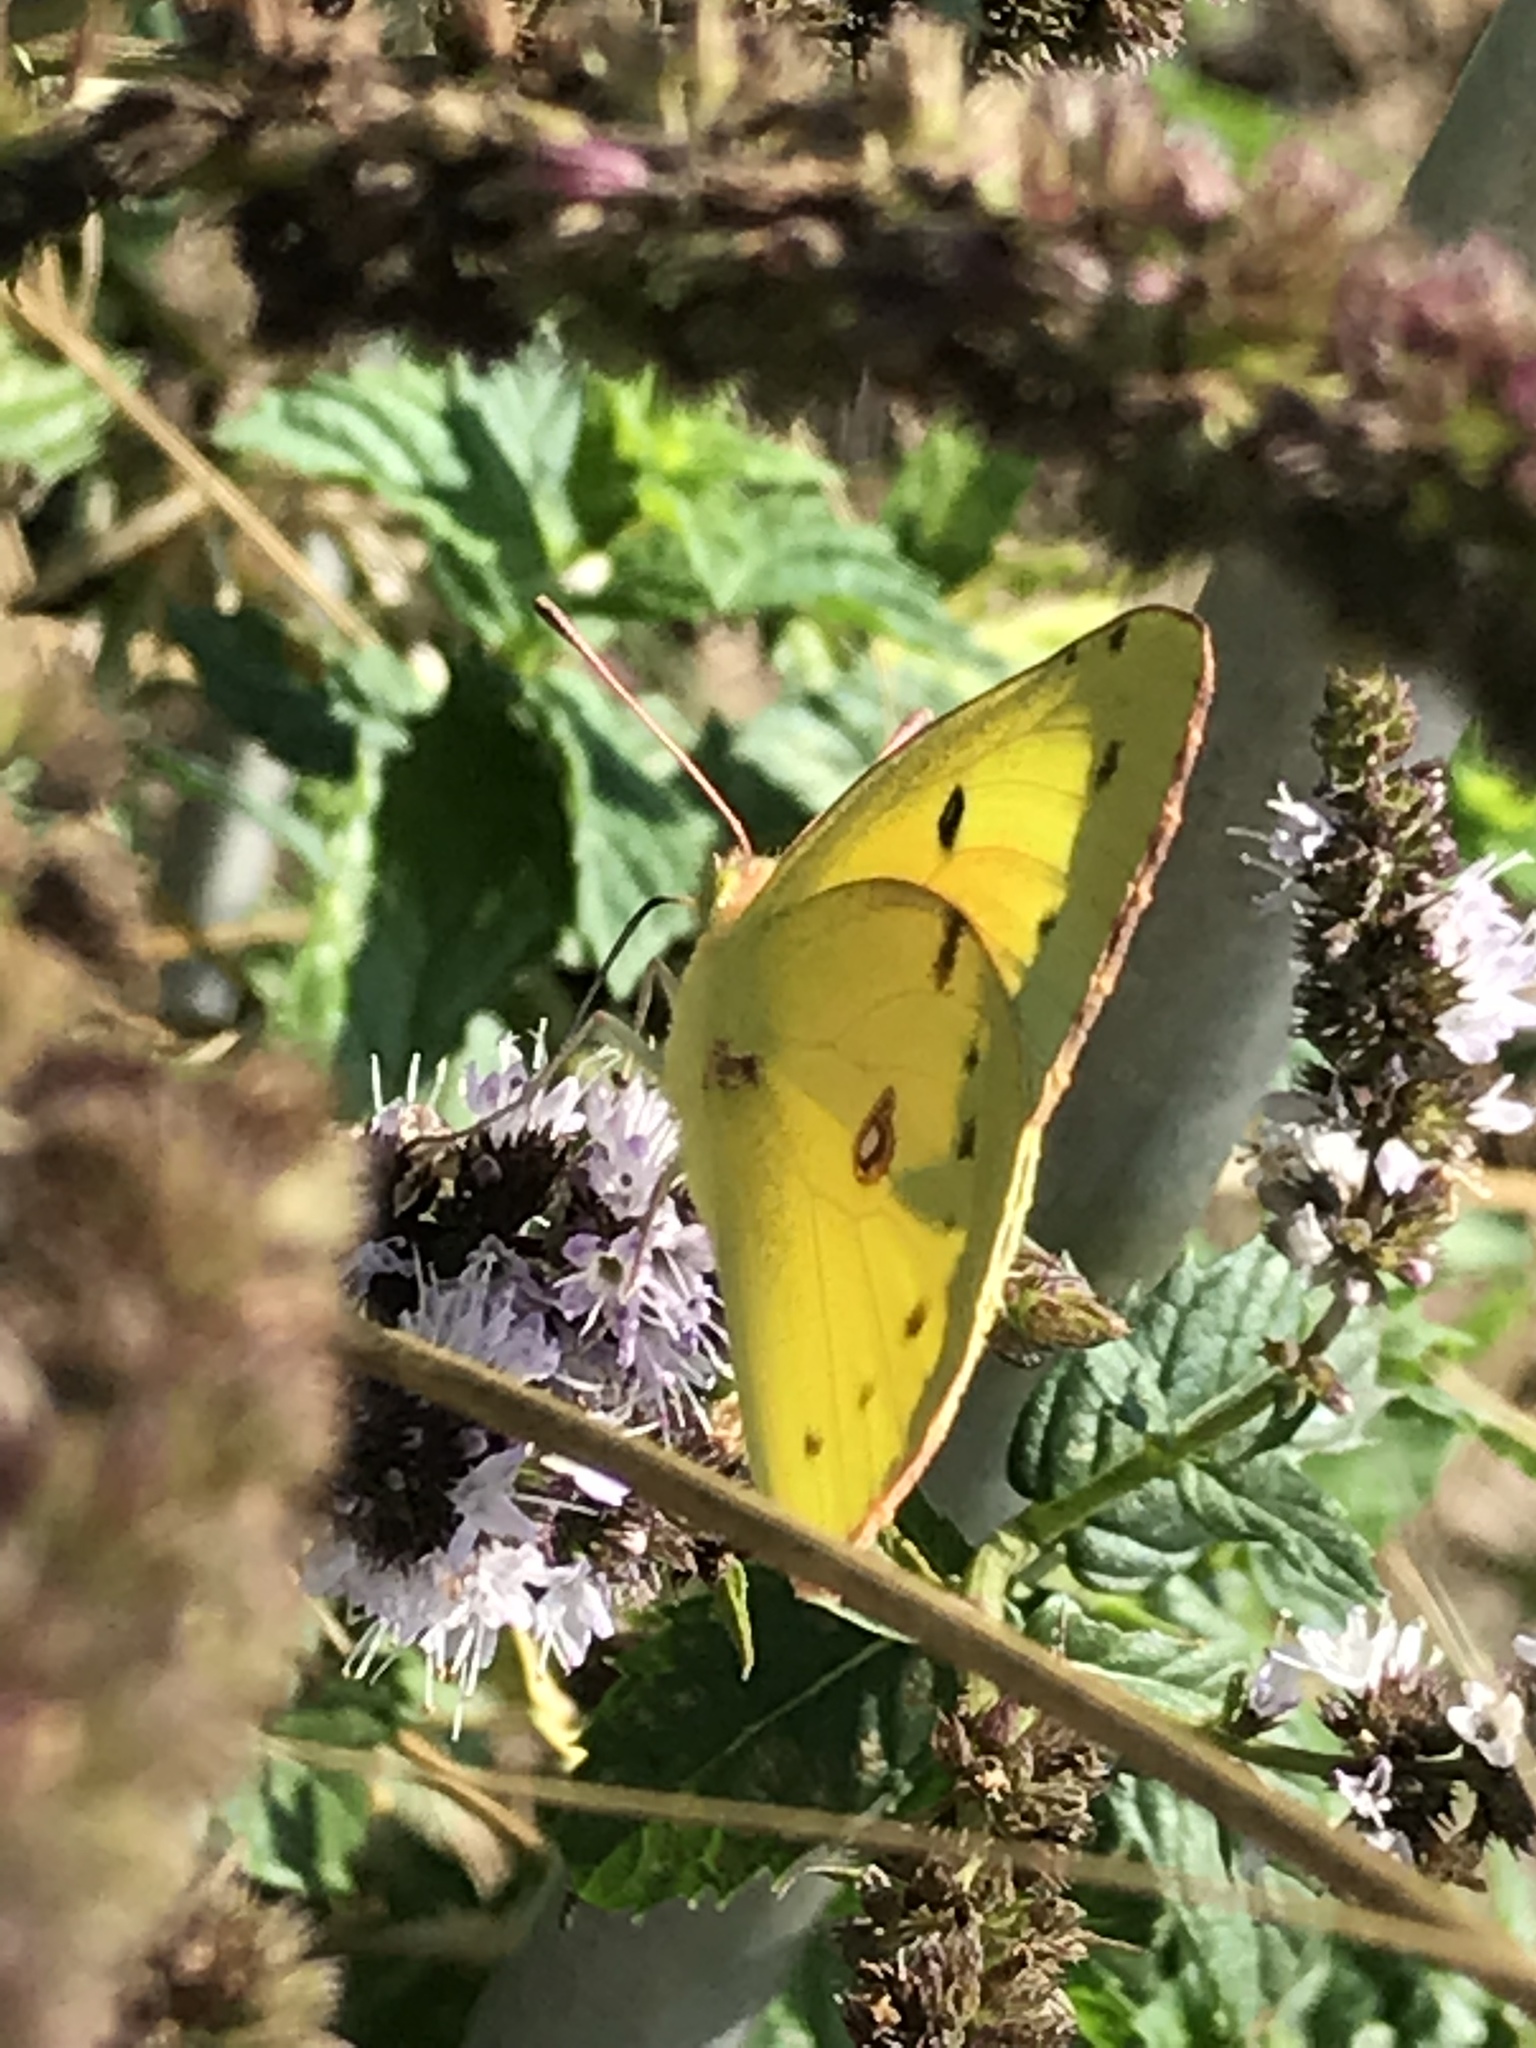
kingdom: Animalia
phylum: Arthropoda
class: Insecta
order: Lepidoptera
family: Pieridae
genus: Colias
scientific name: Colias eurytheme
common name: Alfalfa butterfly
